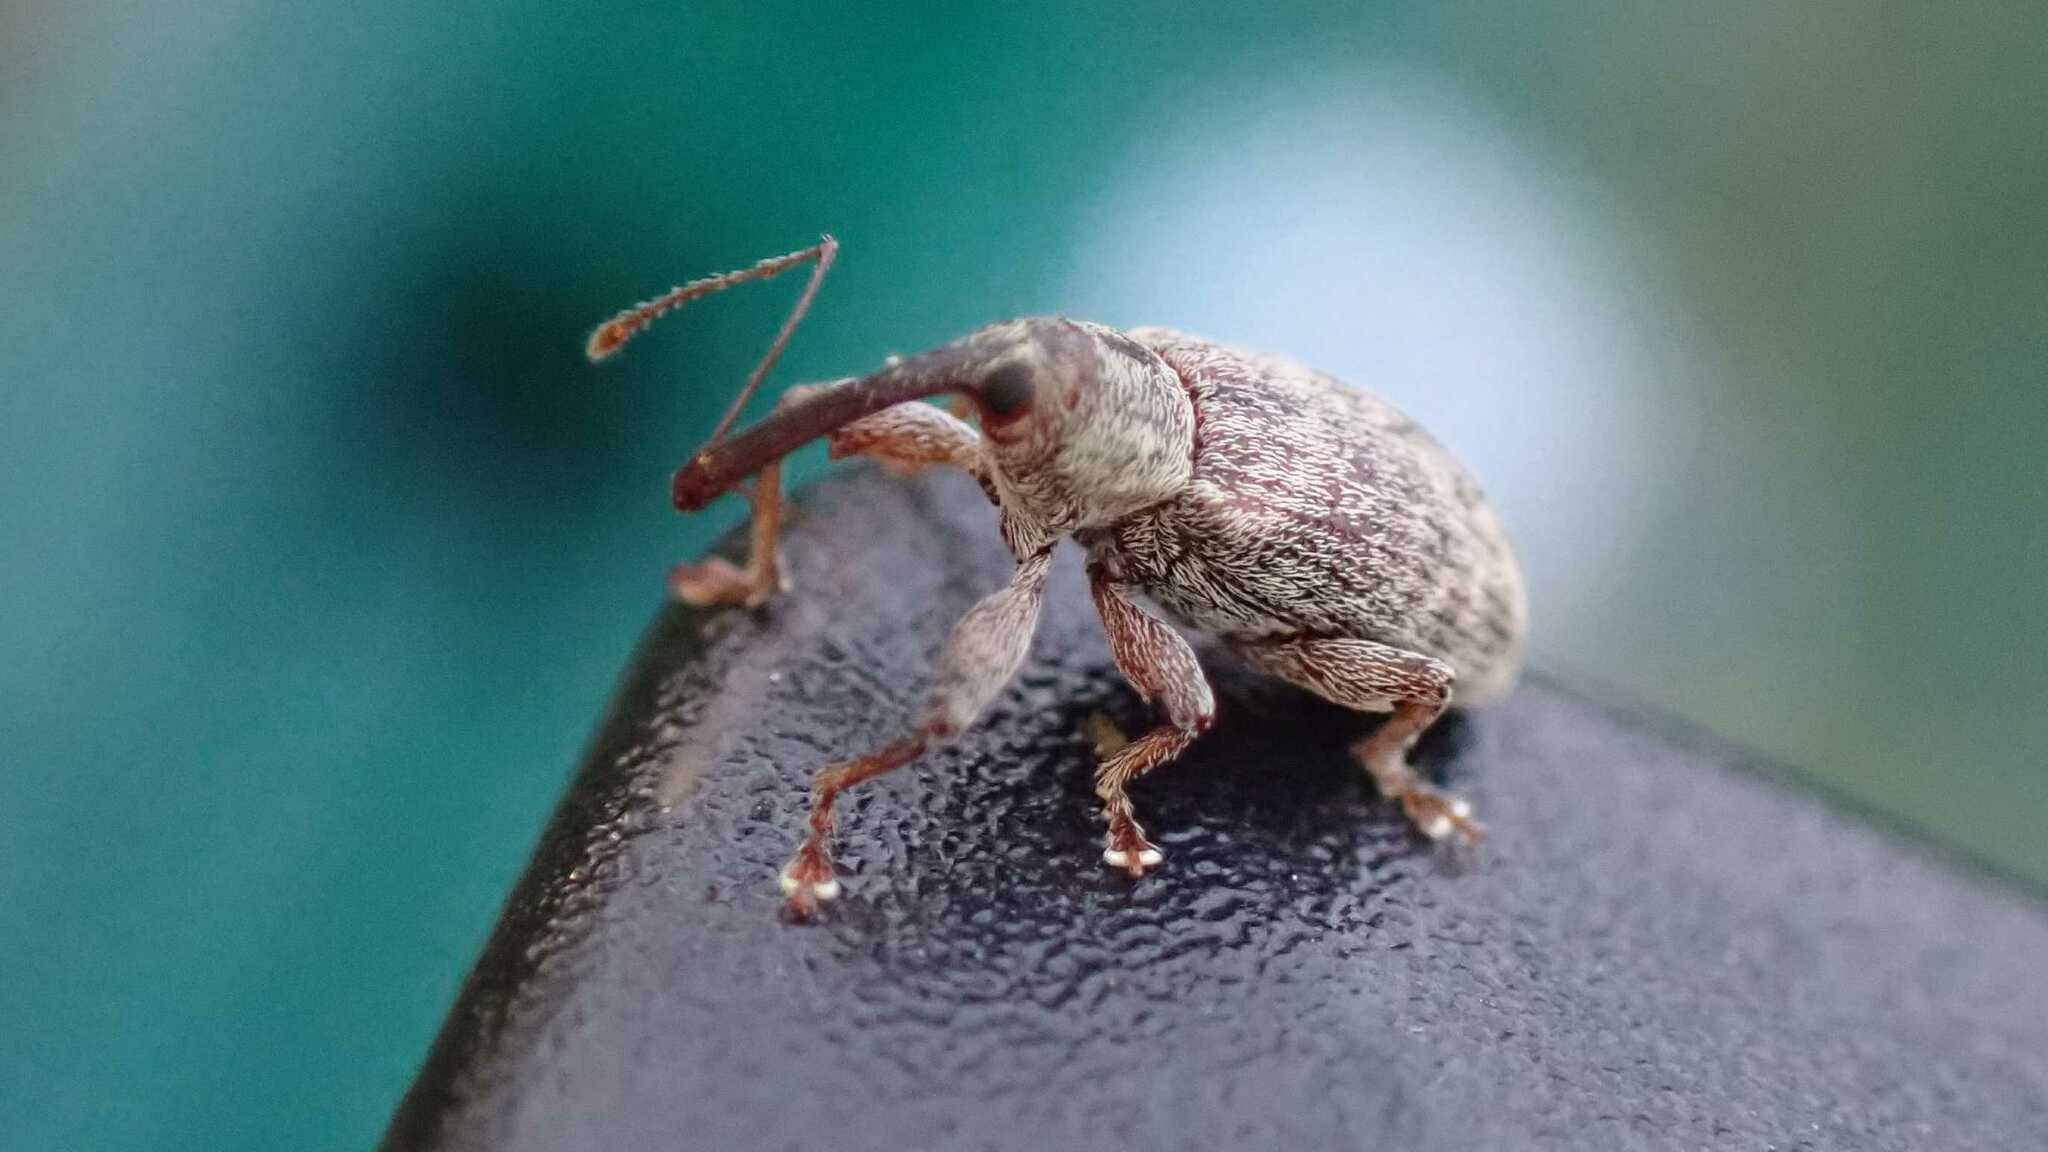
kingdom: Animalia
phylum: Arthropoda
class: Insecta
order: Coleoptera
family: Brachyceridae
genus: Erirhinus
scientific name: Erirhinus filirostris
